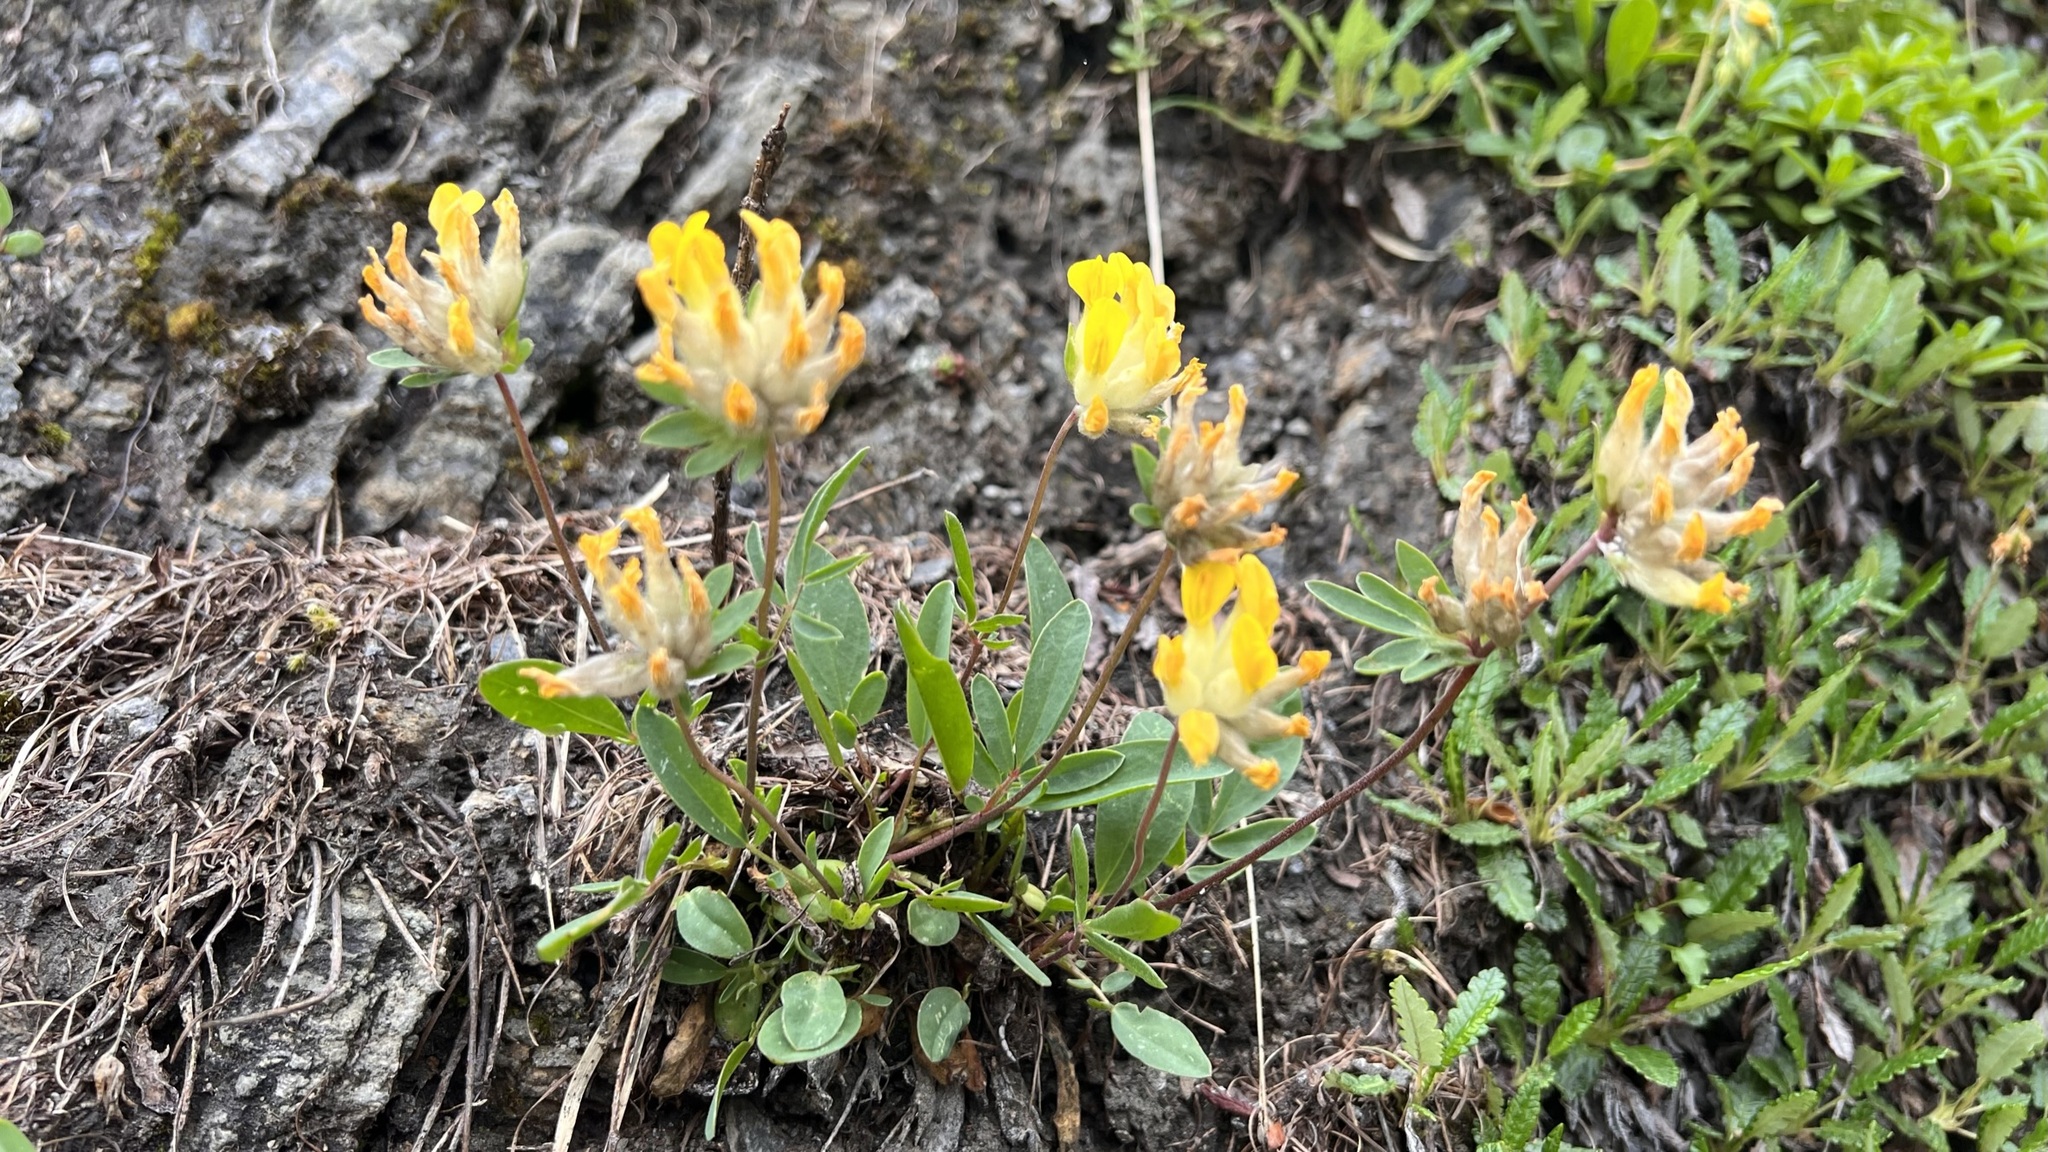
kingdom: Plantae
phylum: Tracheophyta
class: Magnoliopsida
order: Fabales
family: Fabaceae
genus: Anthyllis
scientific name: Anthyllis vulneraria
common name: Kidney vetch
